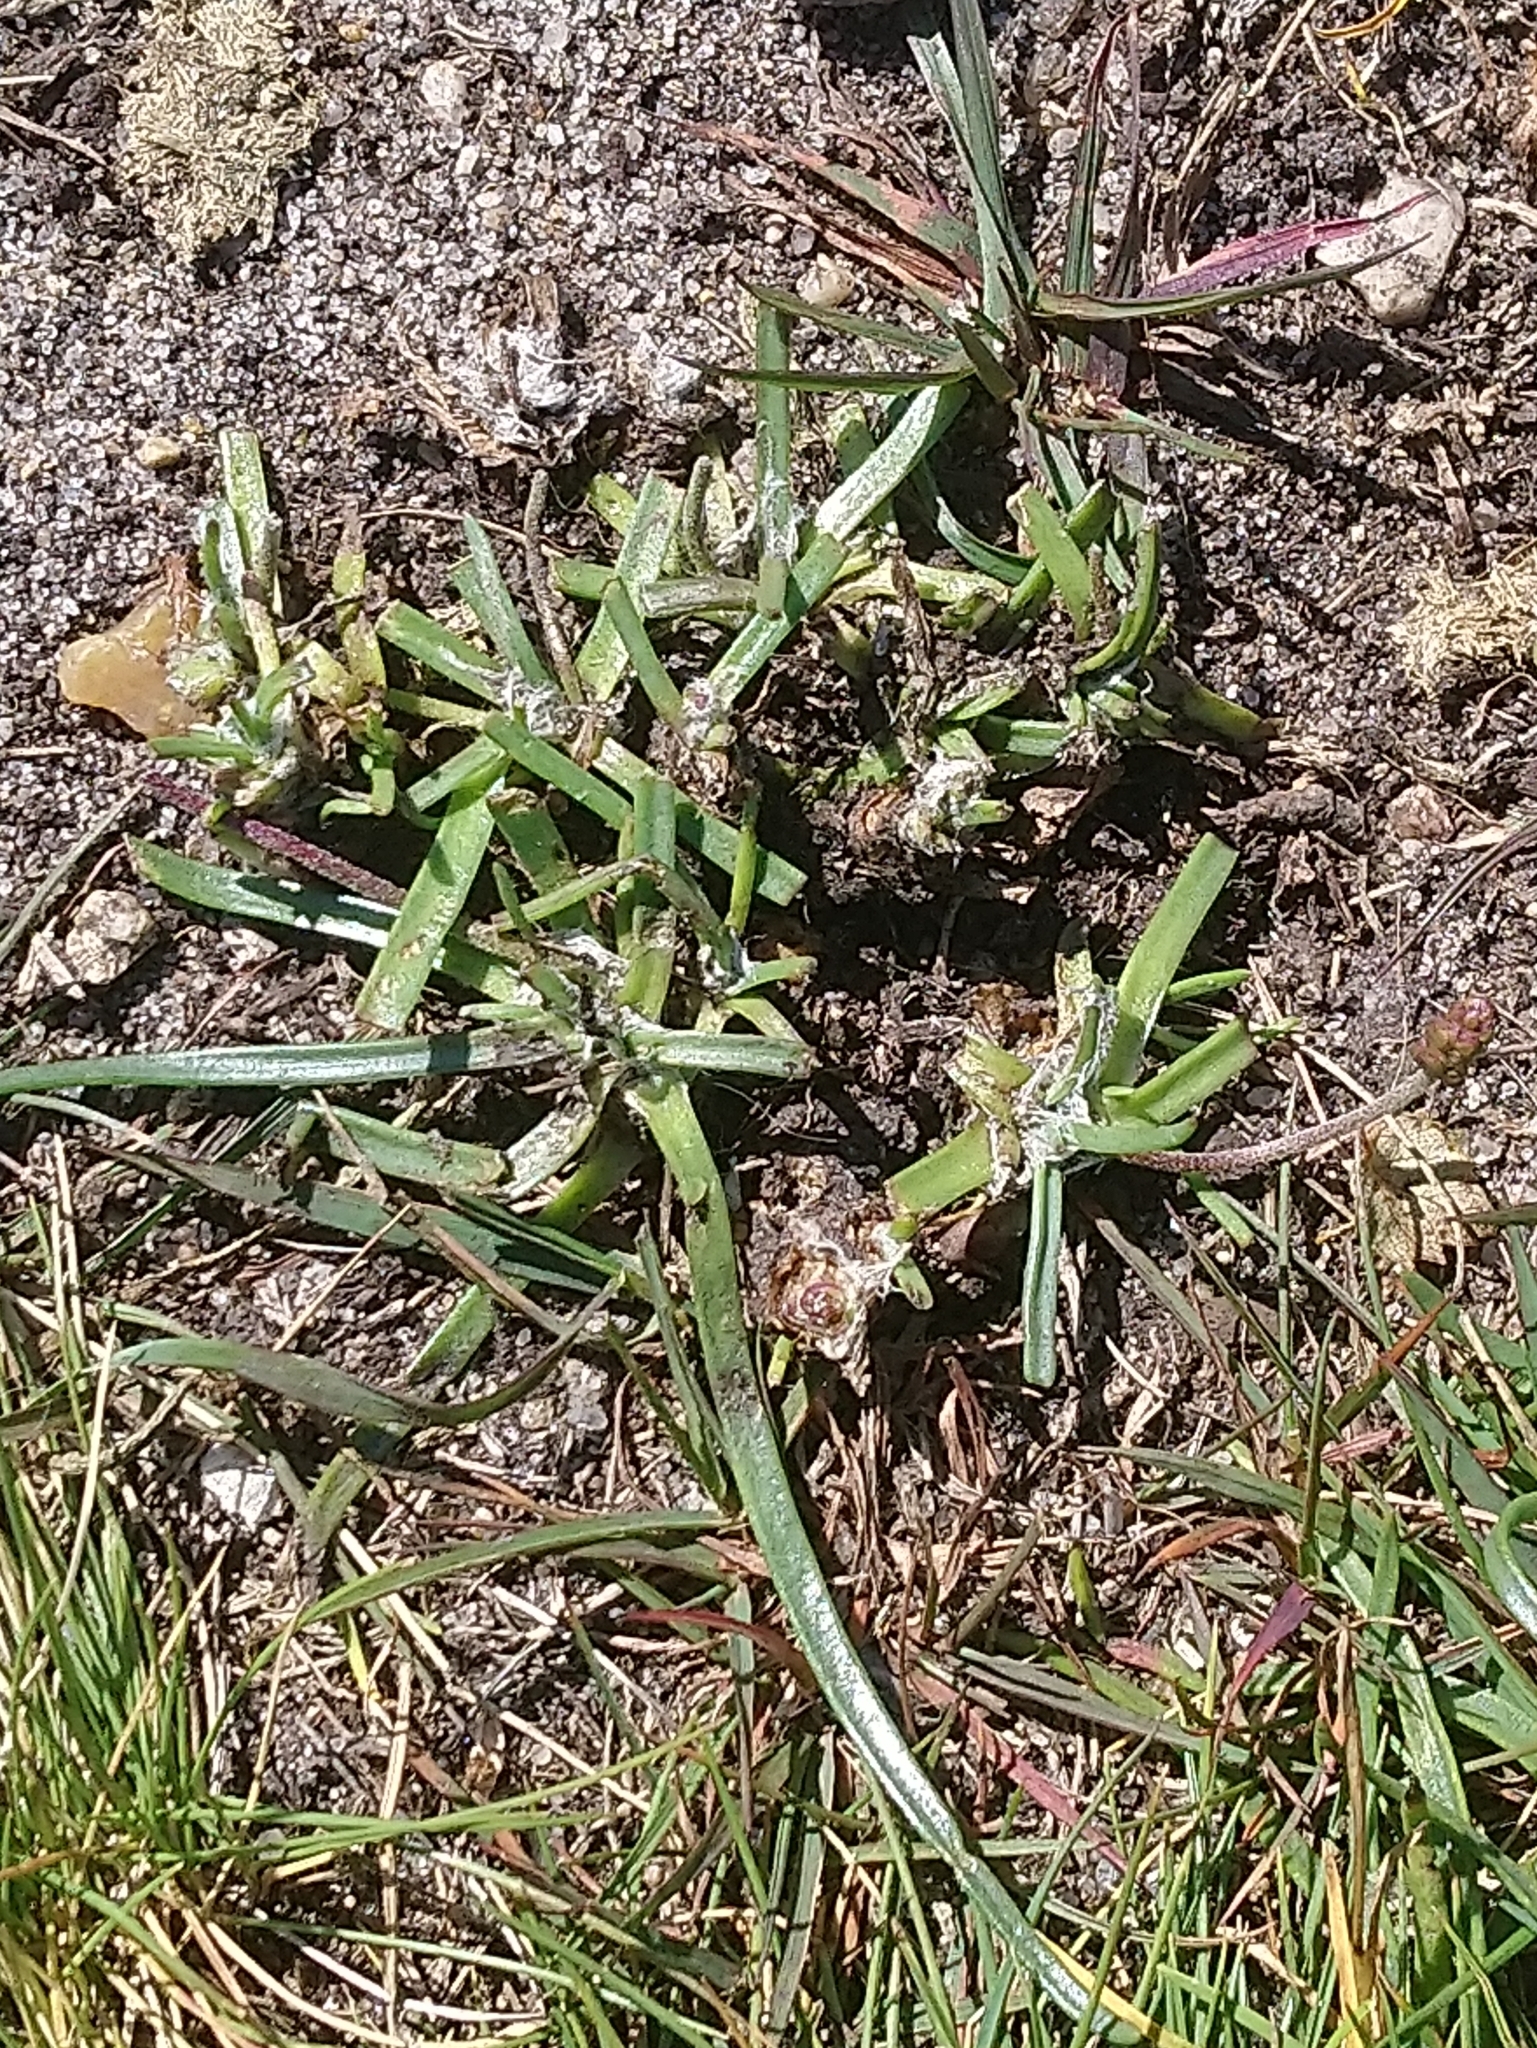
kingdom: Plantae
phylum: Tracheophyta
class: Magnoliopsida
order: Lamiales
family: Plantaginaceae
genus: Plantago
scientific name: Plantago maritima
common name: Sea plantain
